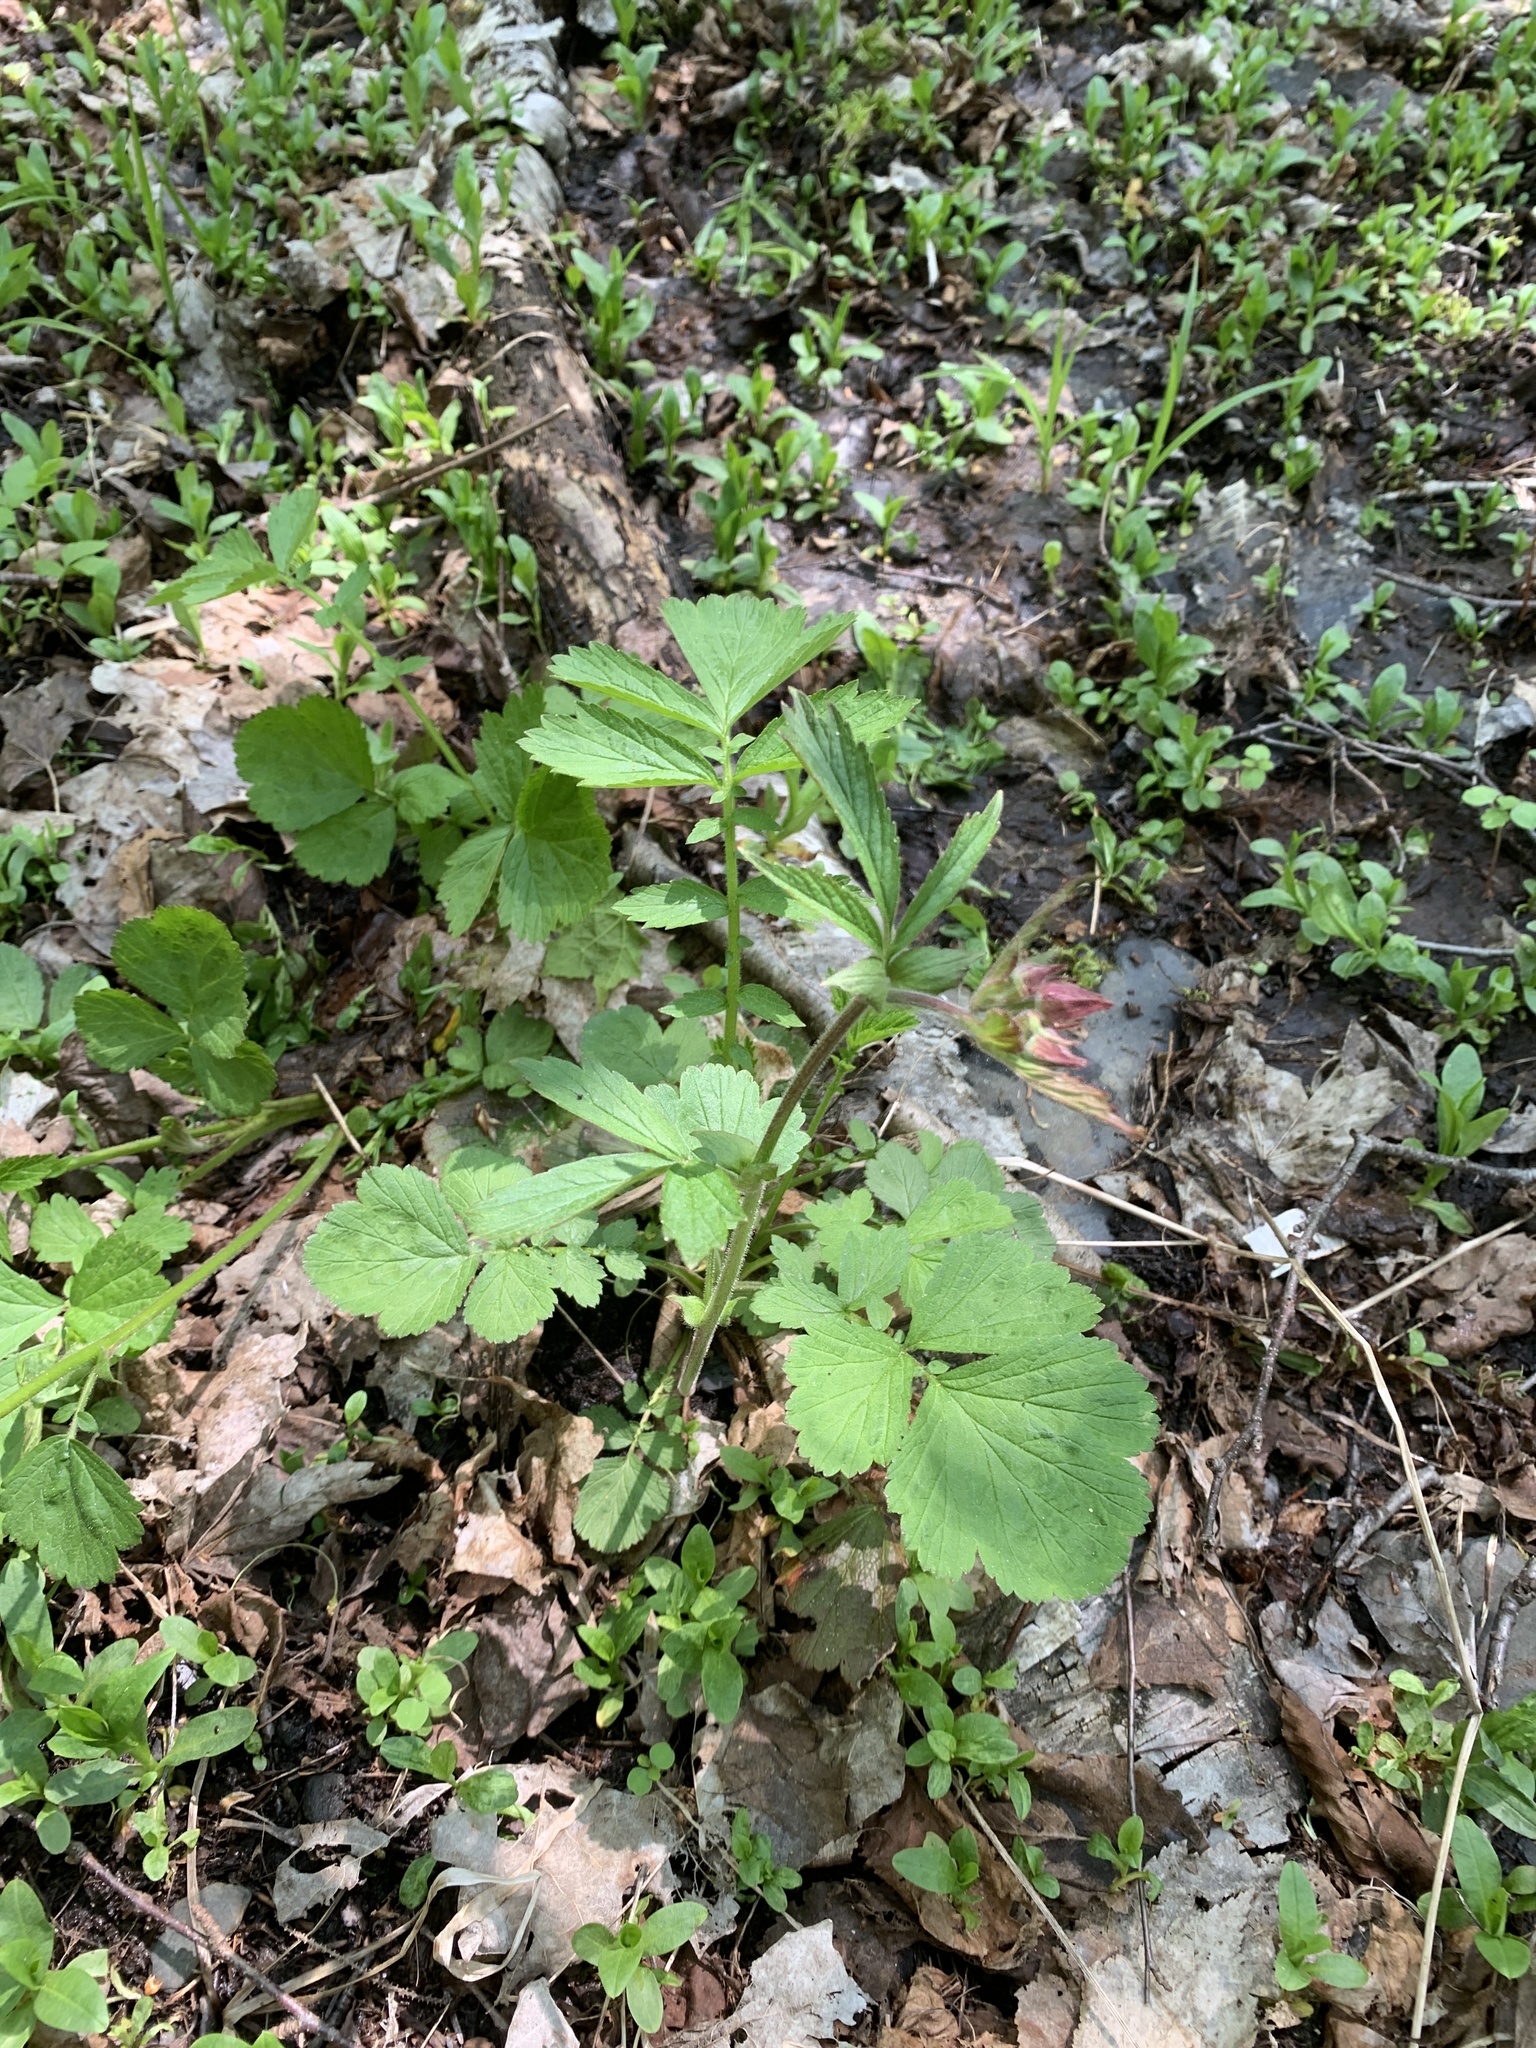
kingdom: Plantae
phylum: Tracheophyta
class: Magnoliopsida
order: Rosales
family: Rosaceae
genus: Geum
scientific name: Geum rivale
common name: Water avens
